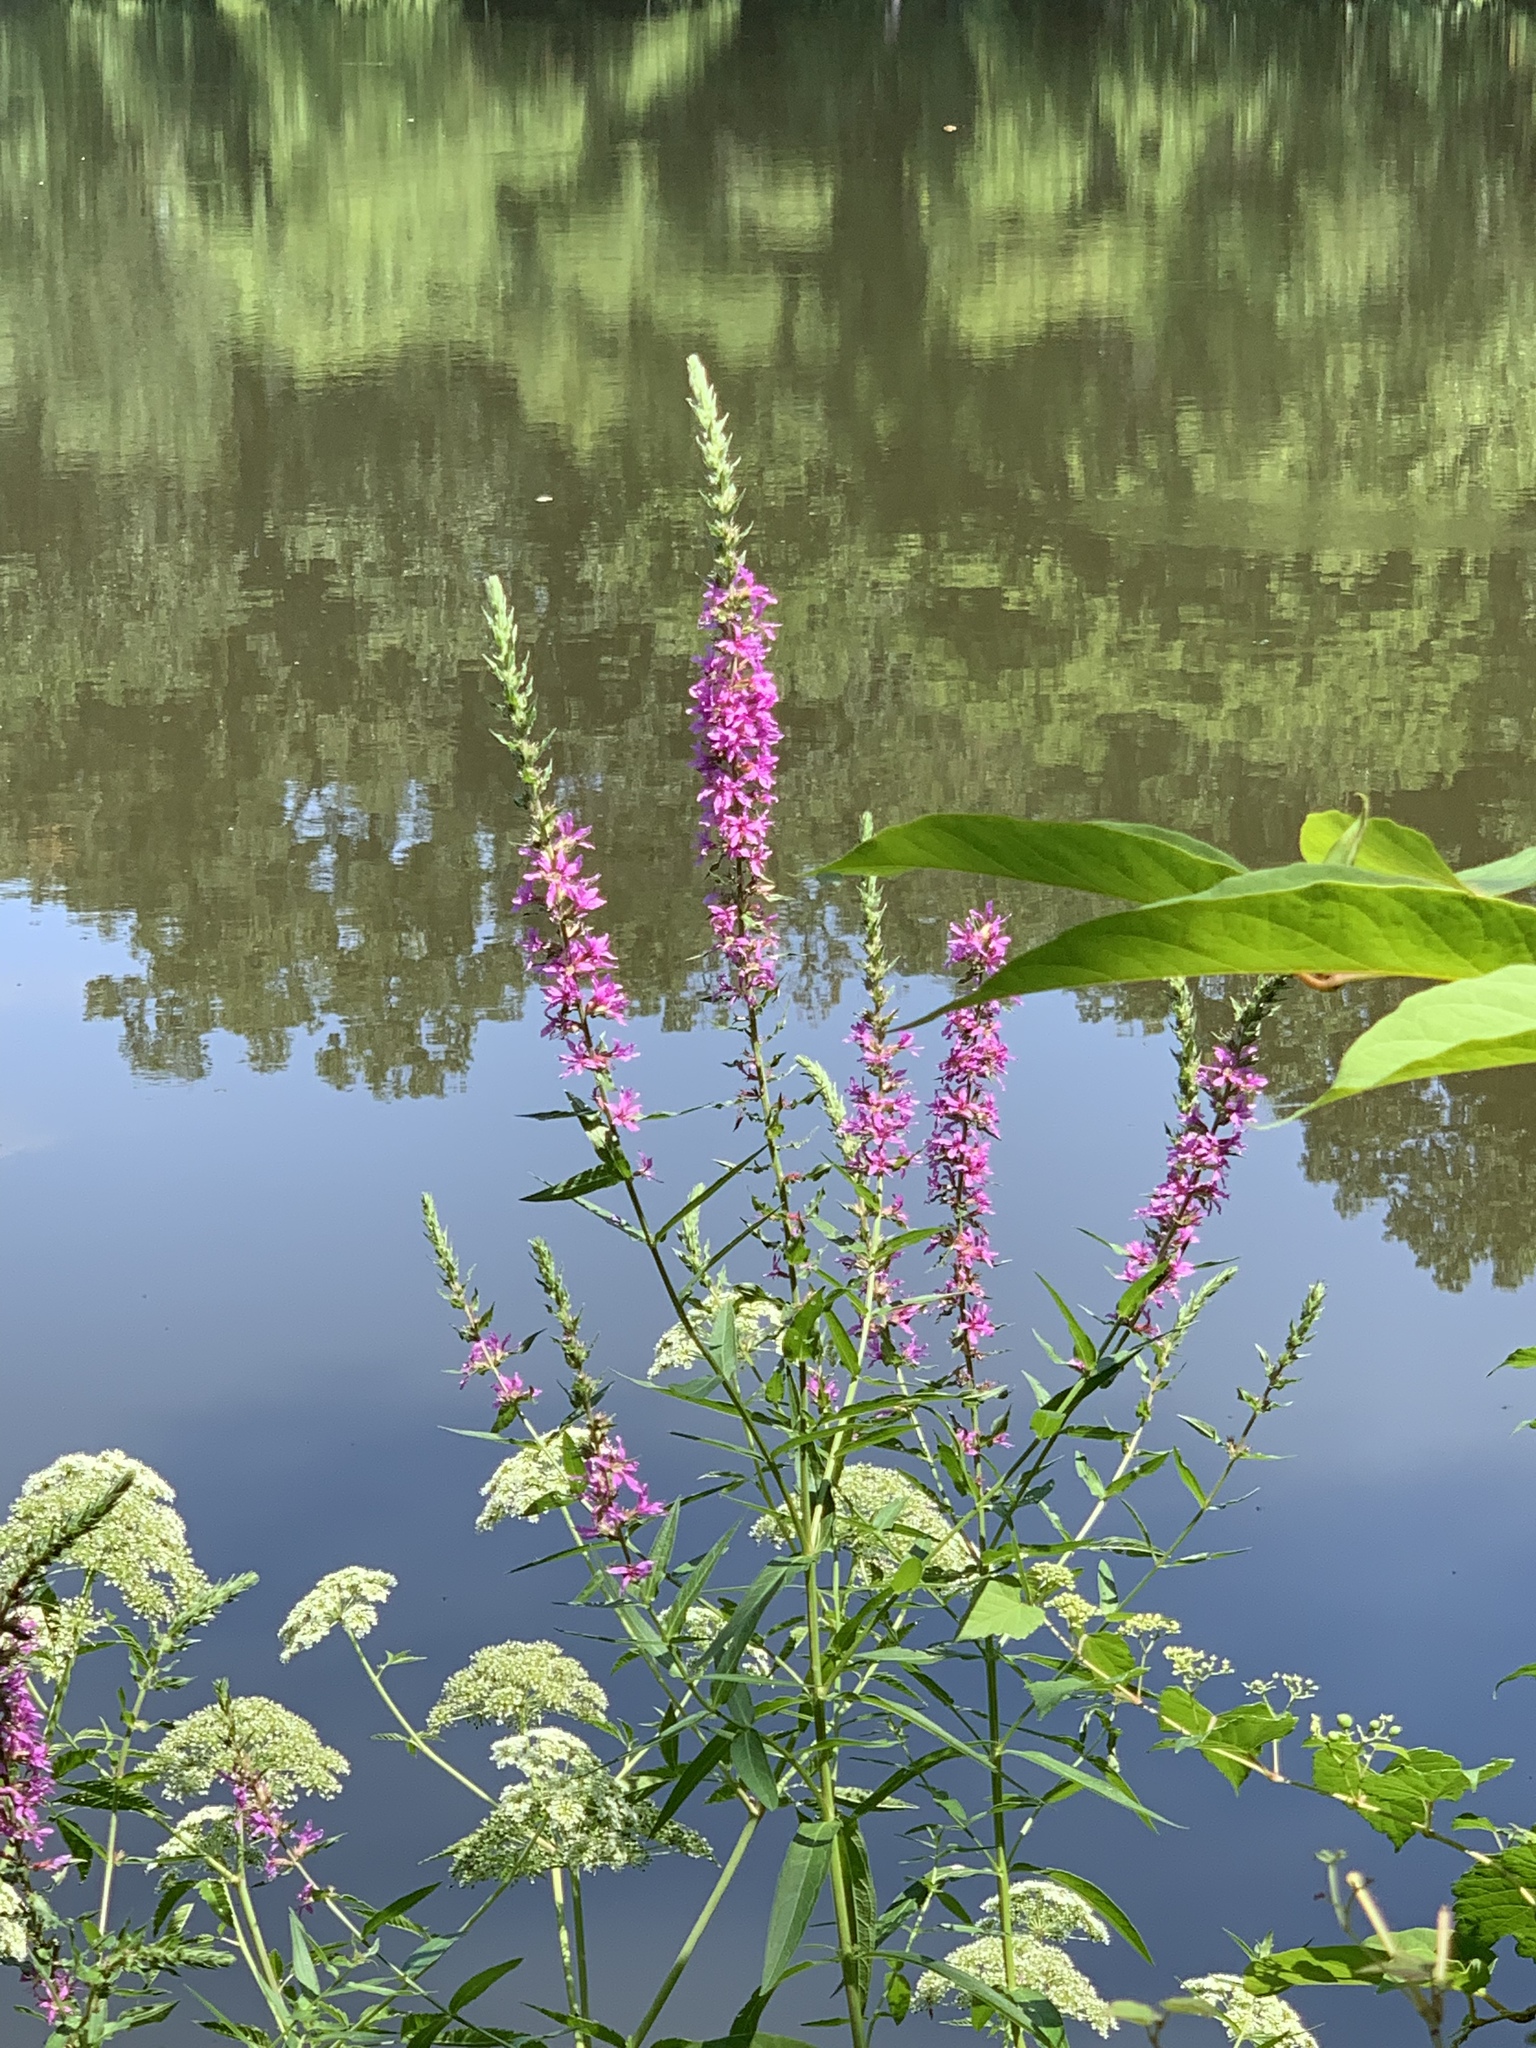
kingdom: Plantae
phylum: Tracheophyta
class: Magnoliopsida
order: Myrtales
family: Lythraceae
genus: Lythrum
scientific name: Lythrum salicaria
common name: Purple loosestrife
